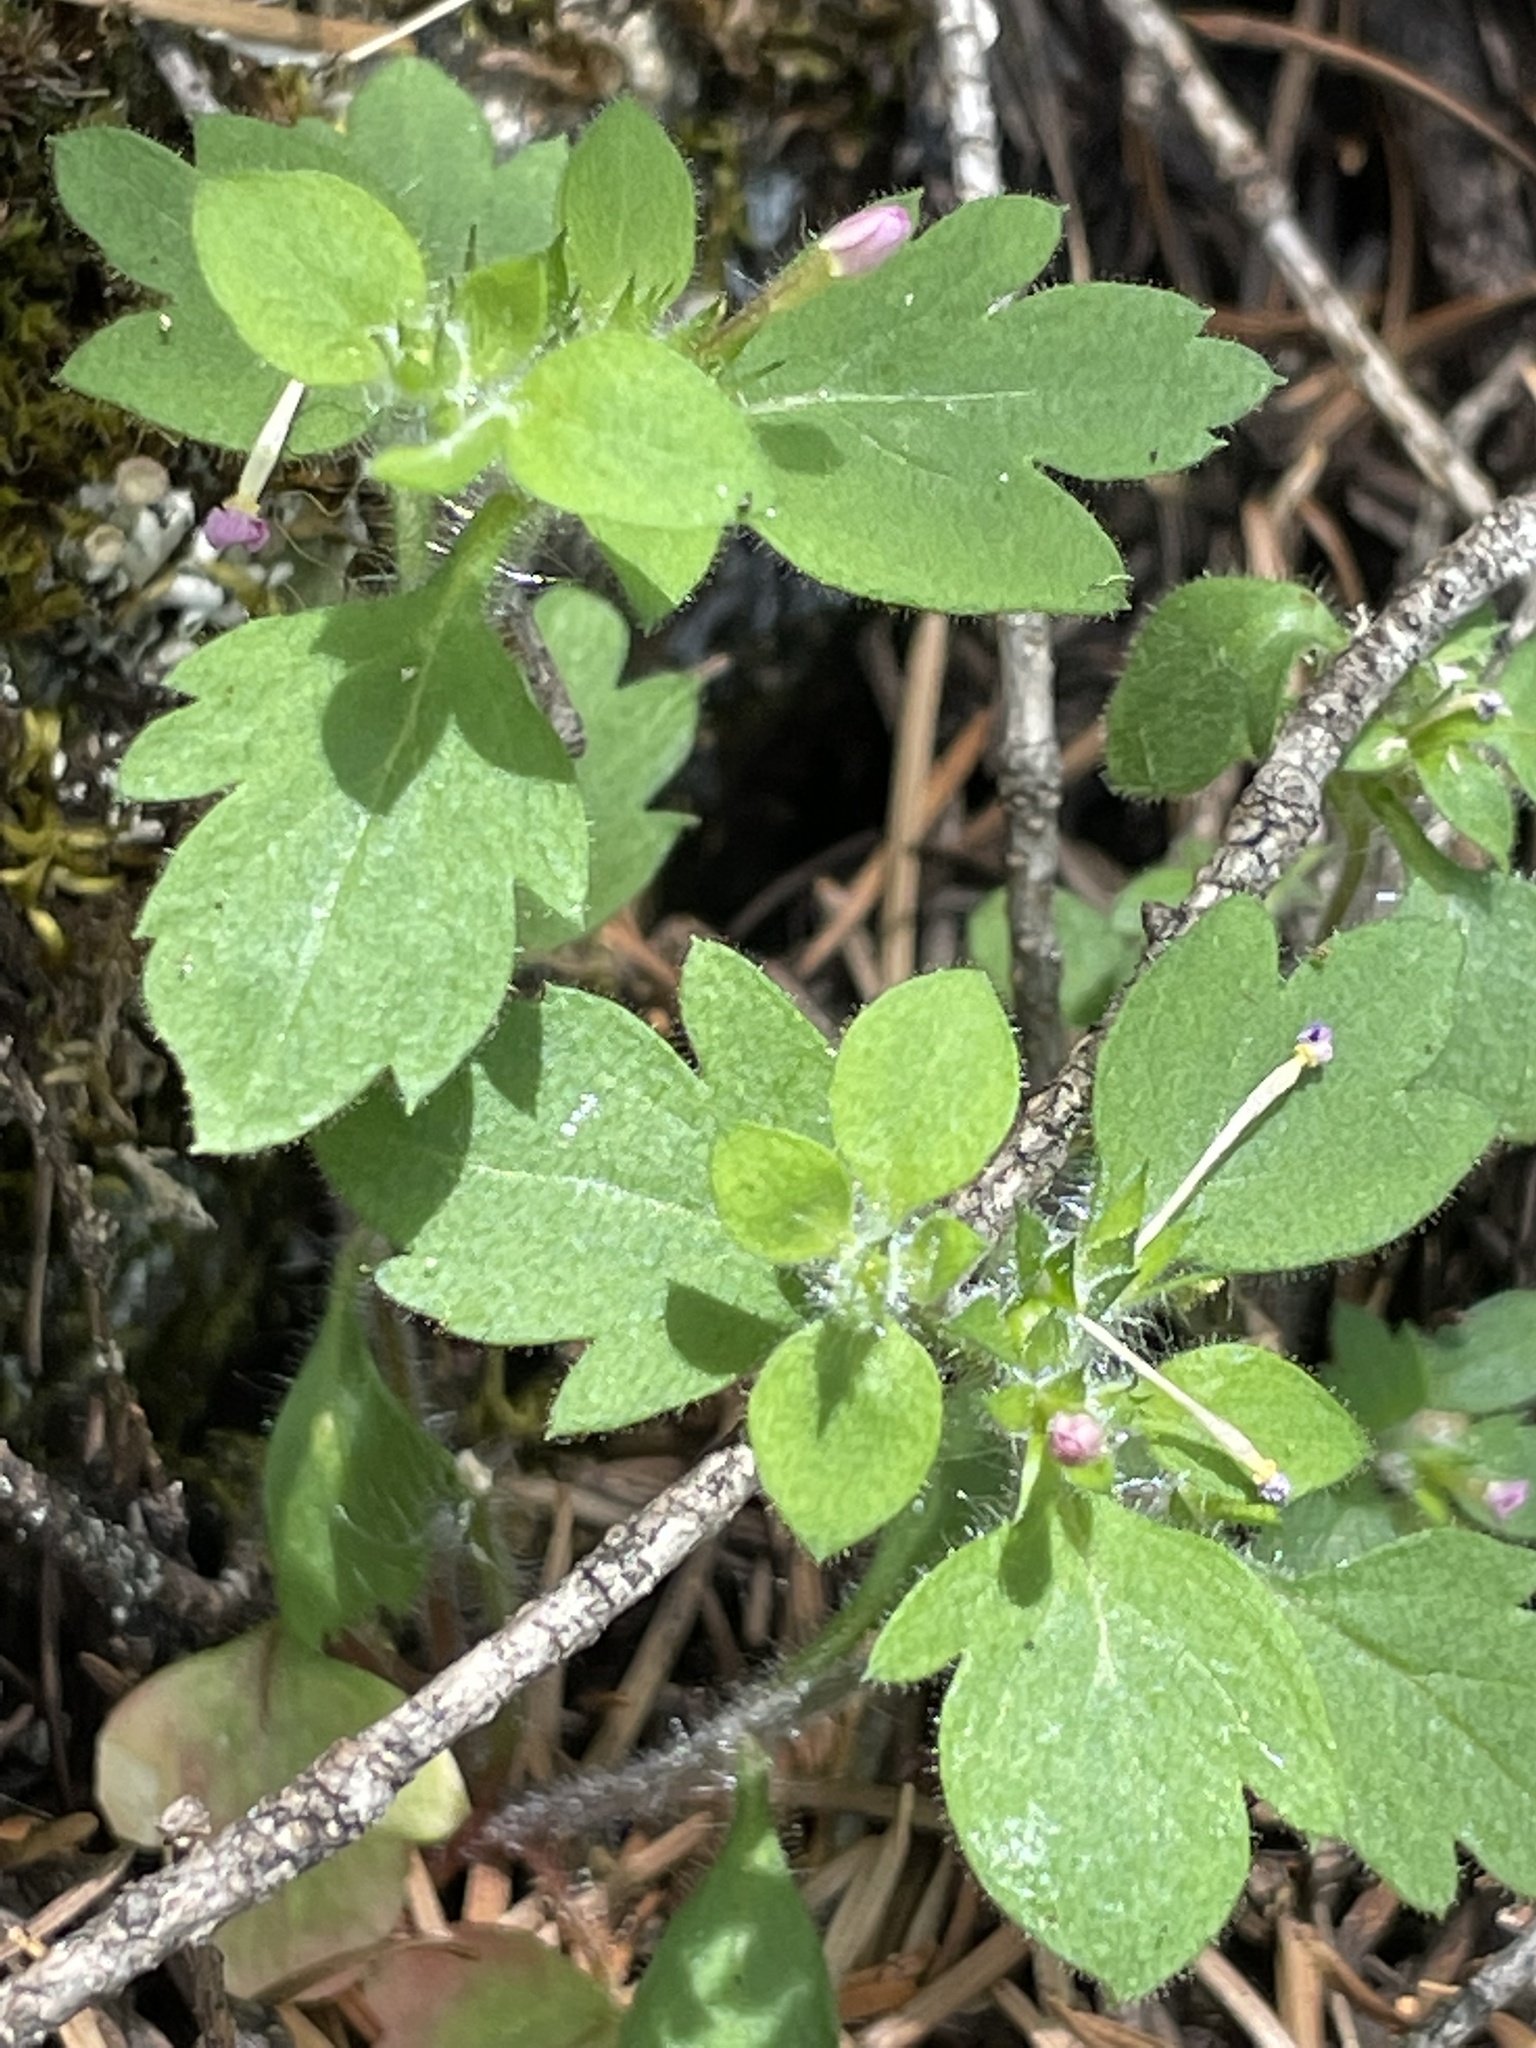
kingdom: Plantae
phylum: Tracheophyta
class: Magnoliopsida
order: Ericales
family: Polemoniaceae
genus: Collomia
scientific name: Collomia heterophylla
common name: Variable-leaved collomia
